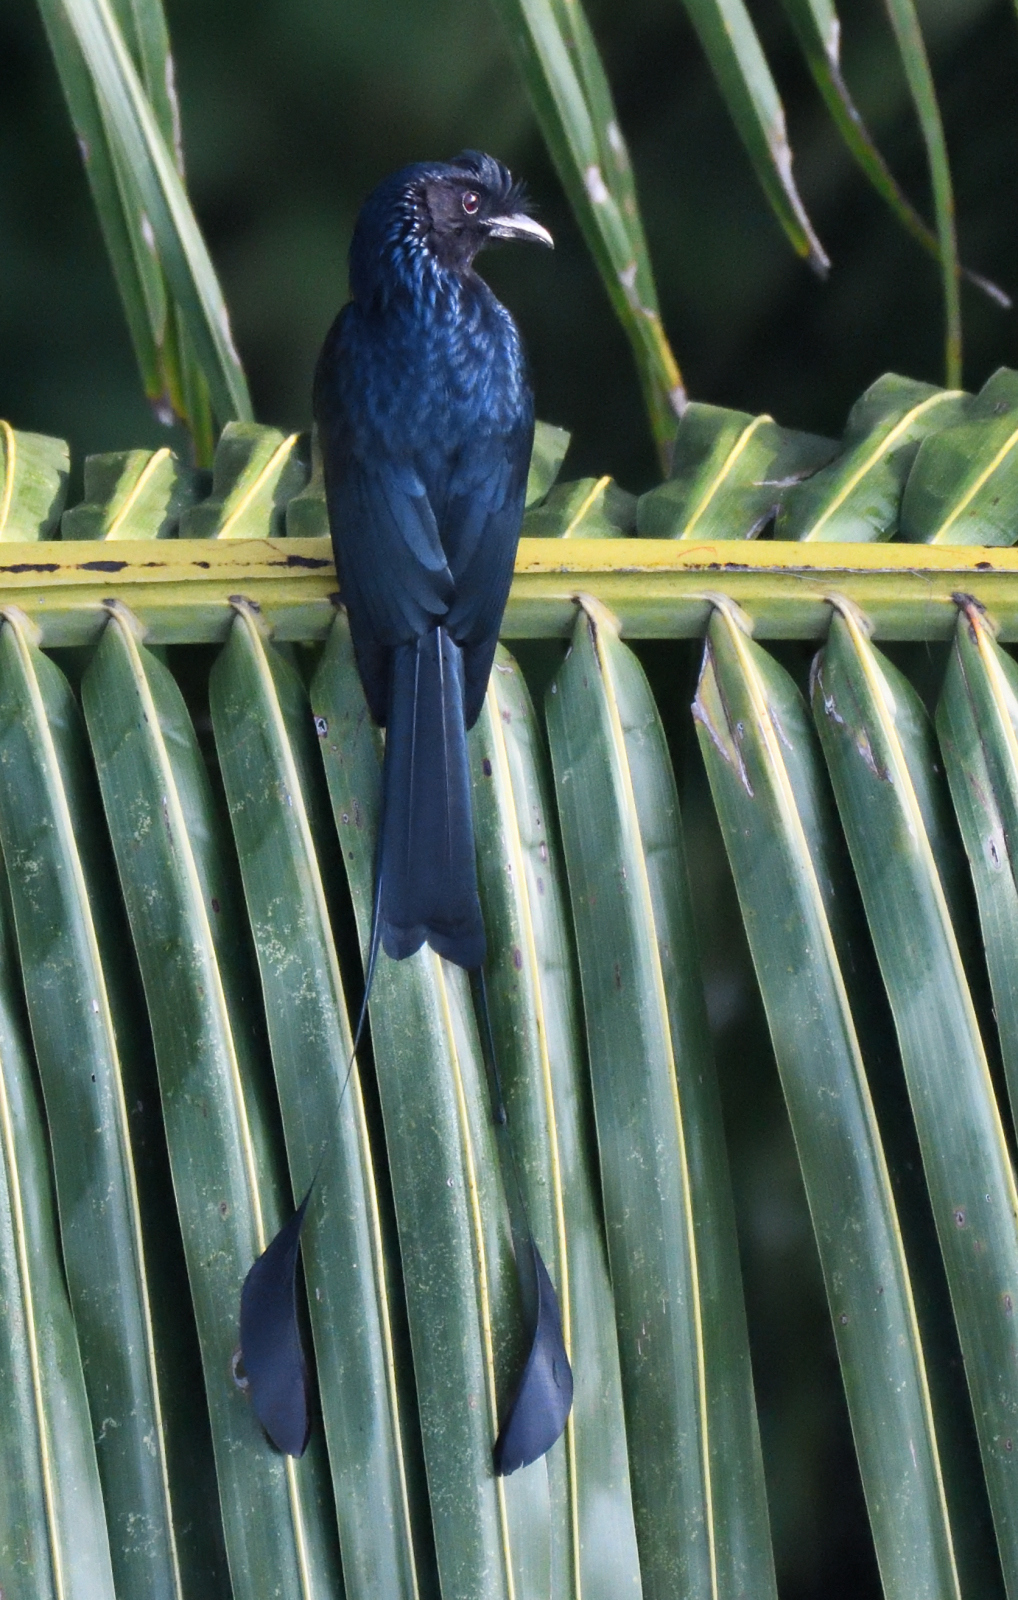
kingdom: Animalia
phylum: Chordata
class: Aves
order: Passeriformes
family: Dicruridae
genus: Dicrurus
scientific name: Dicrurus paradiseus
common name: Greater racket-tailed drongo
